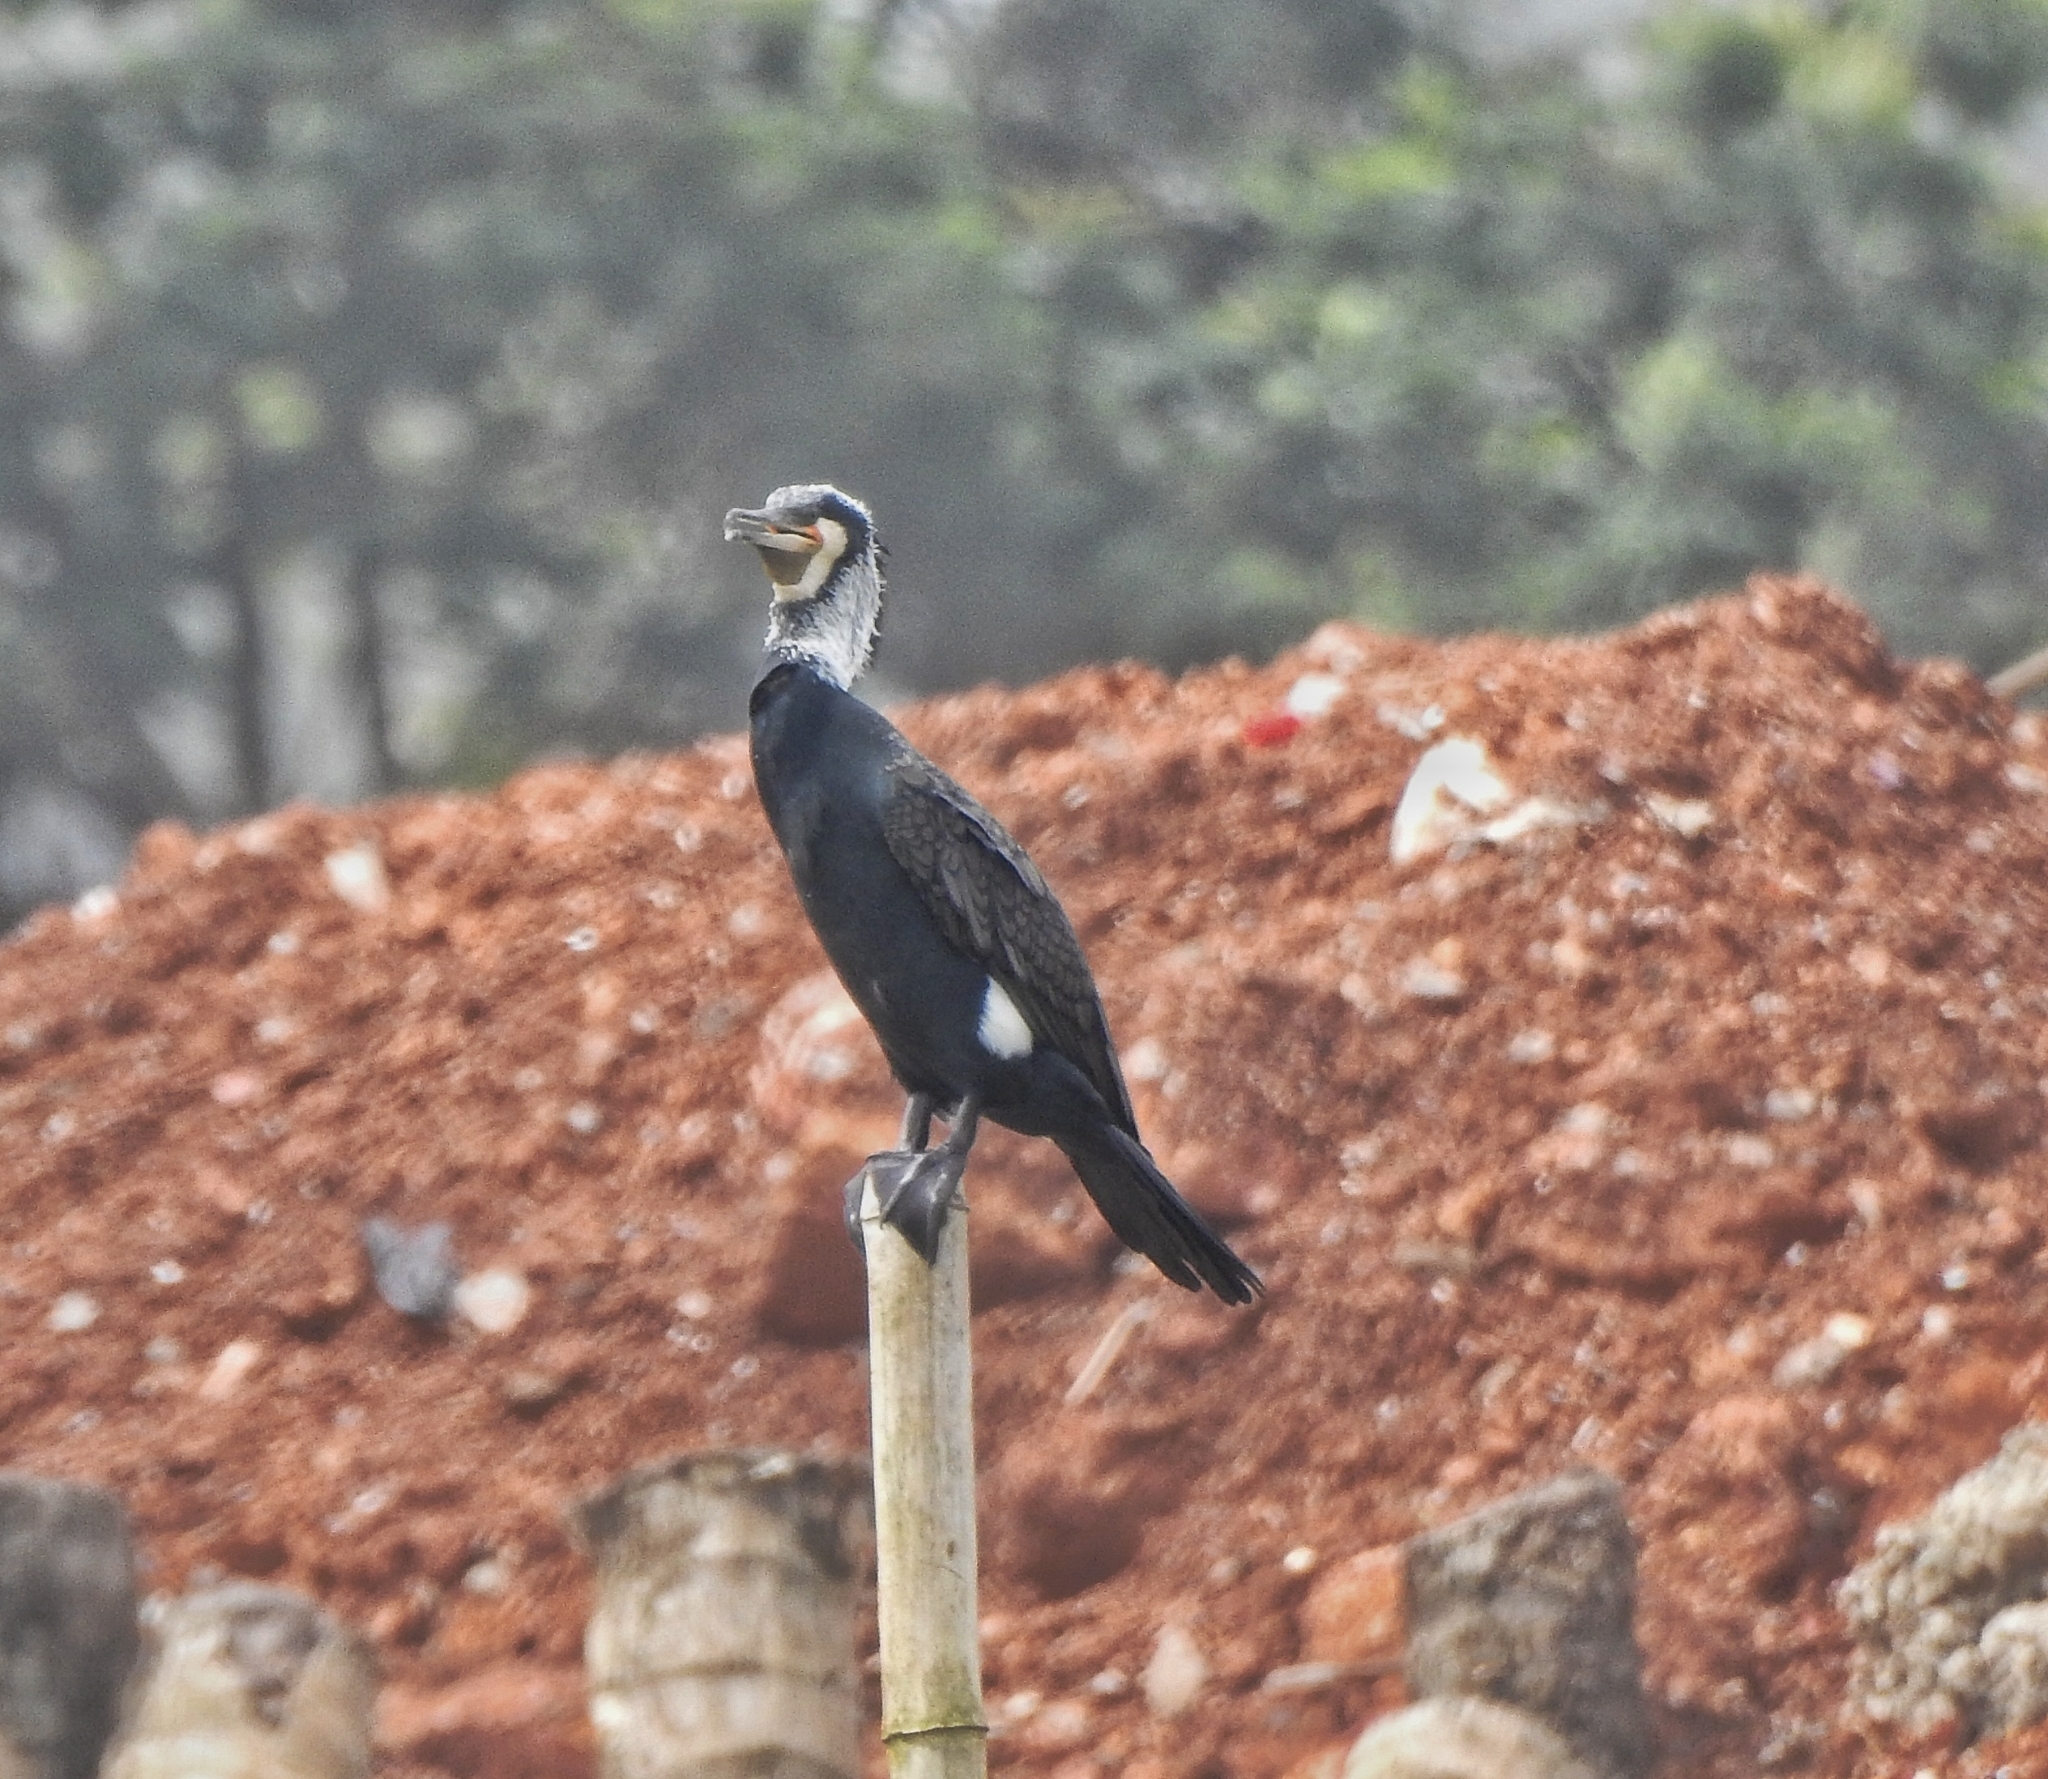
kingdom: Animalia
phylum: Chordata
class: Aves
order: Suliformes
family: Phalacrocoracidae
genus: Phalacrocorax
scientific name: Phalacrocorax carbo
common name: Great cormorant
